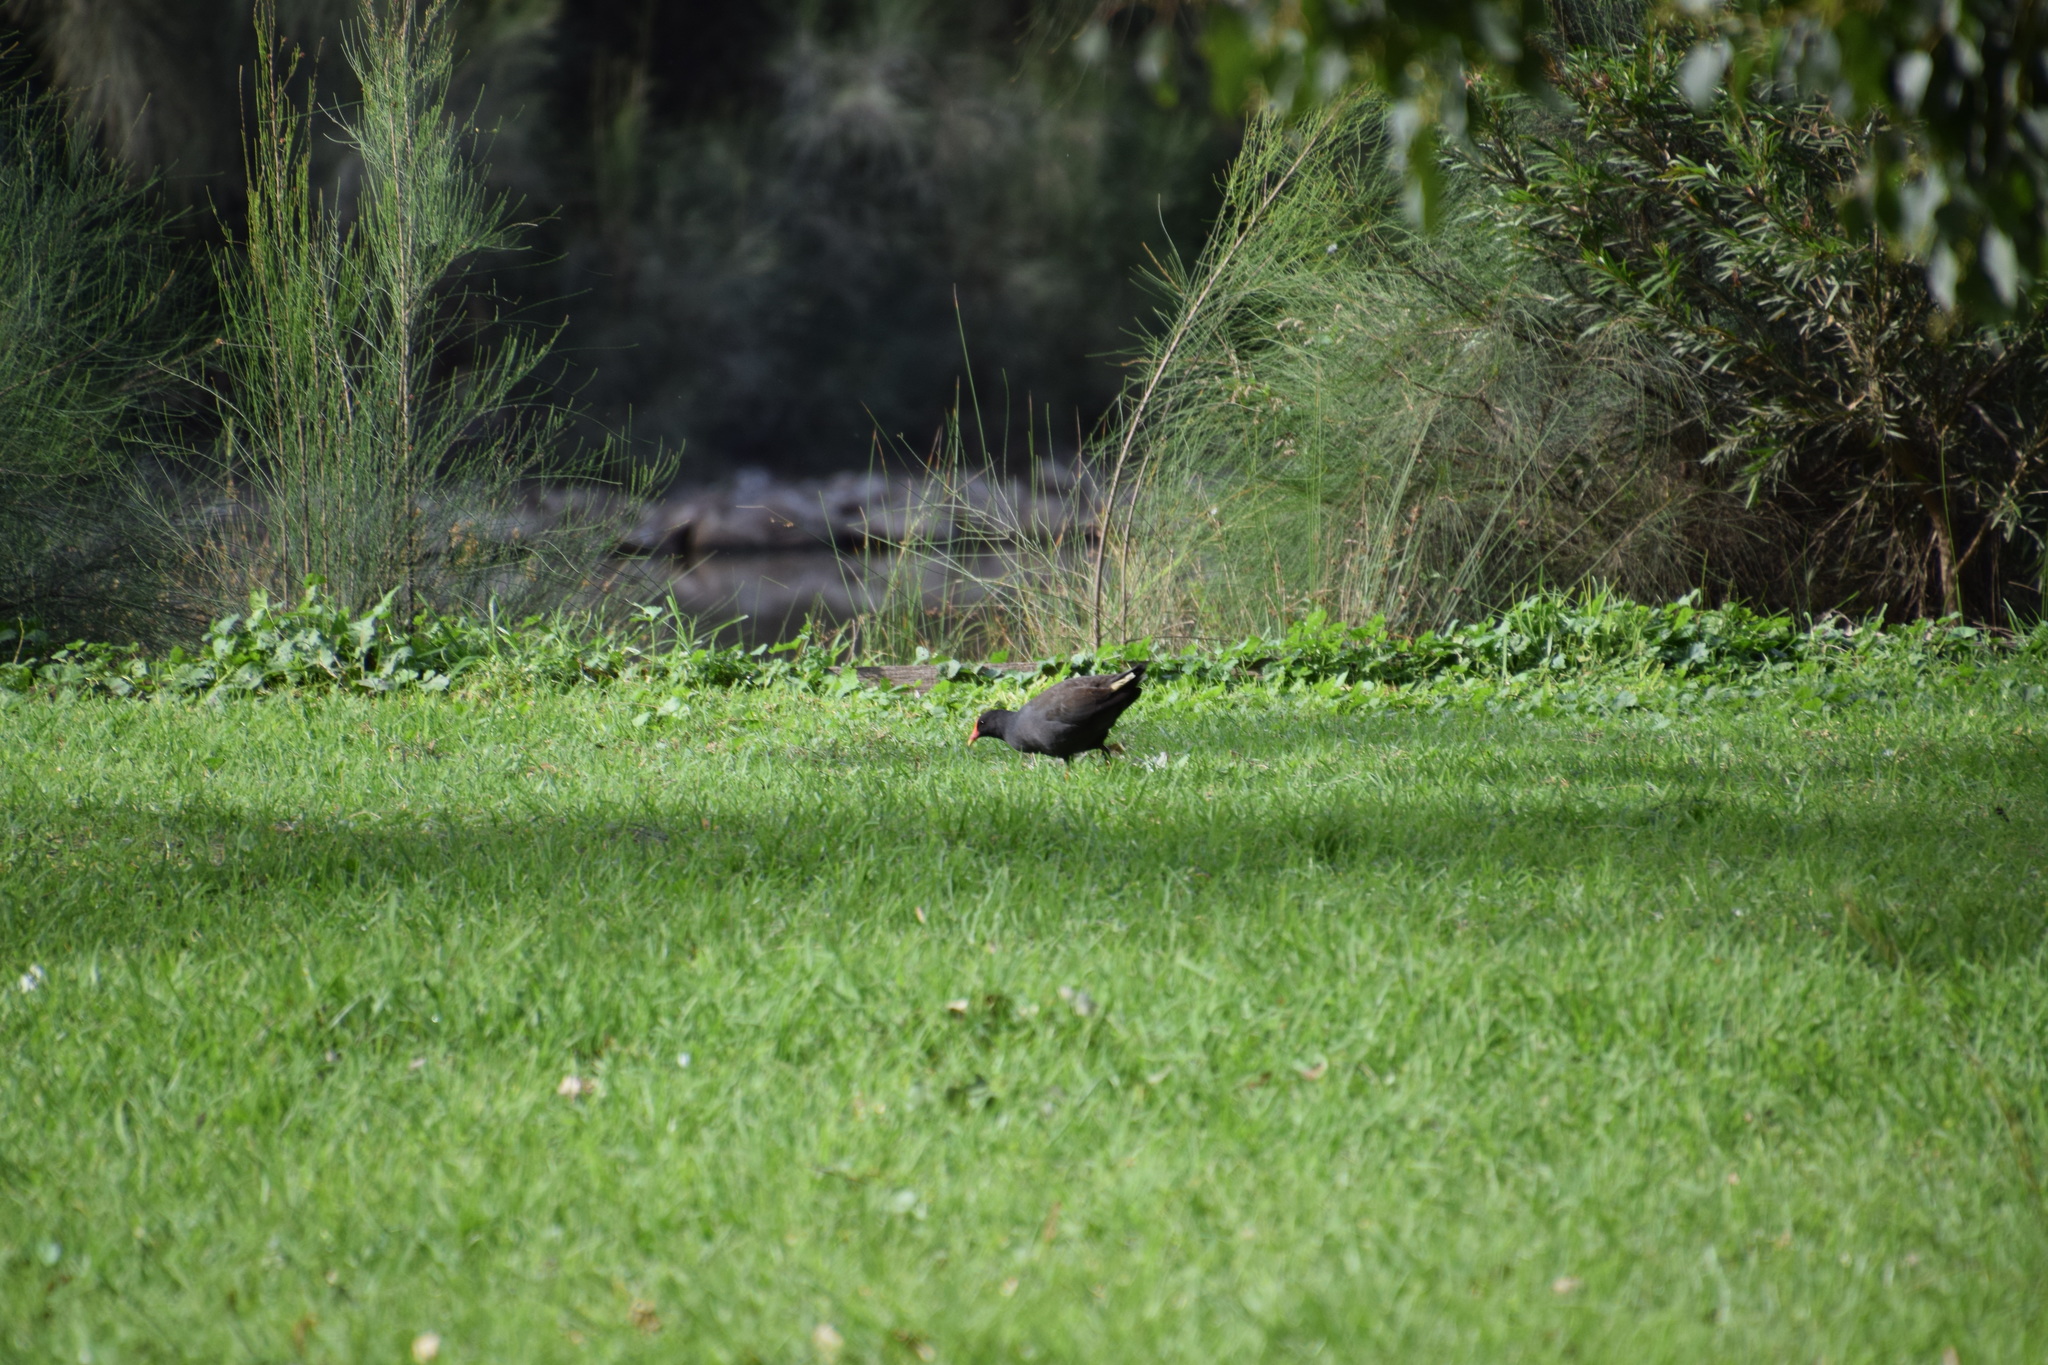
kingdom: Animalia
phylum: Chordata
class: Aves
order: Gruiformes
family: Rallidae
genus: Gallinula
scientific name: Gallinula tenebrosa
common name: Dusky moorhen
